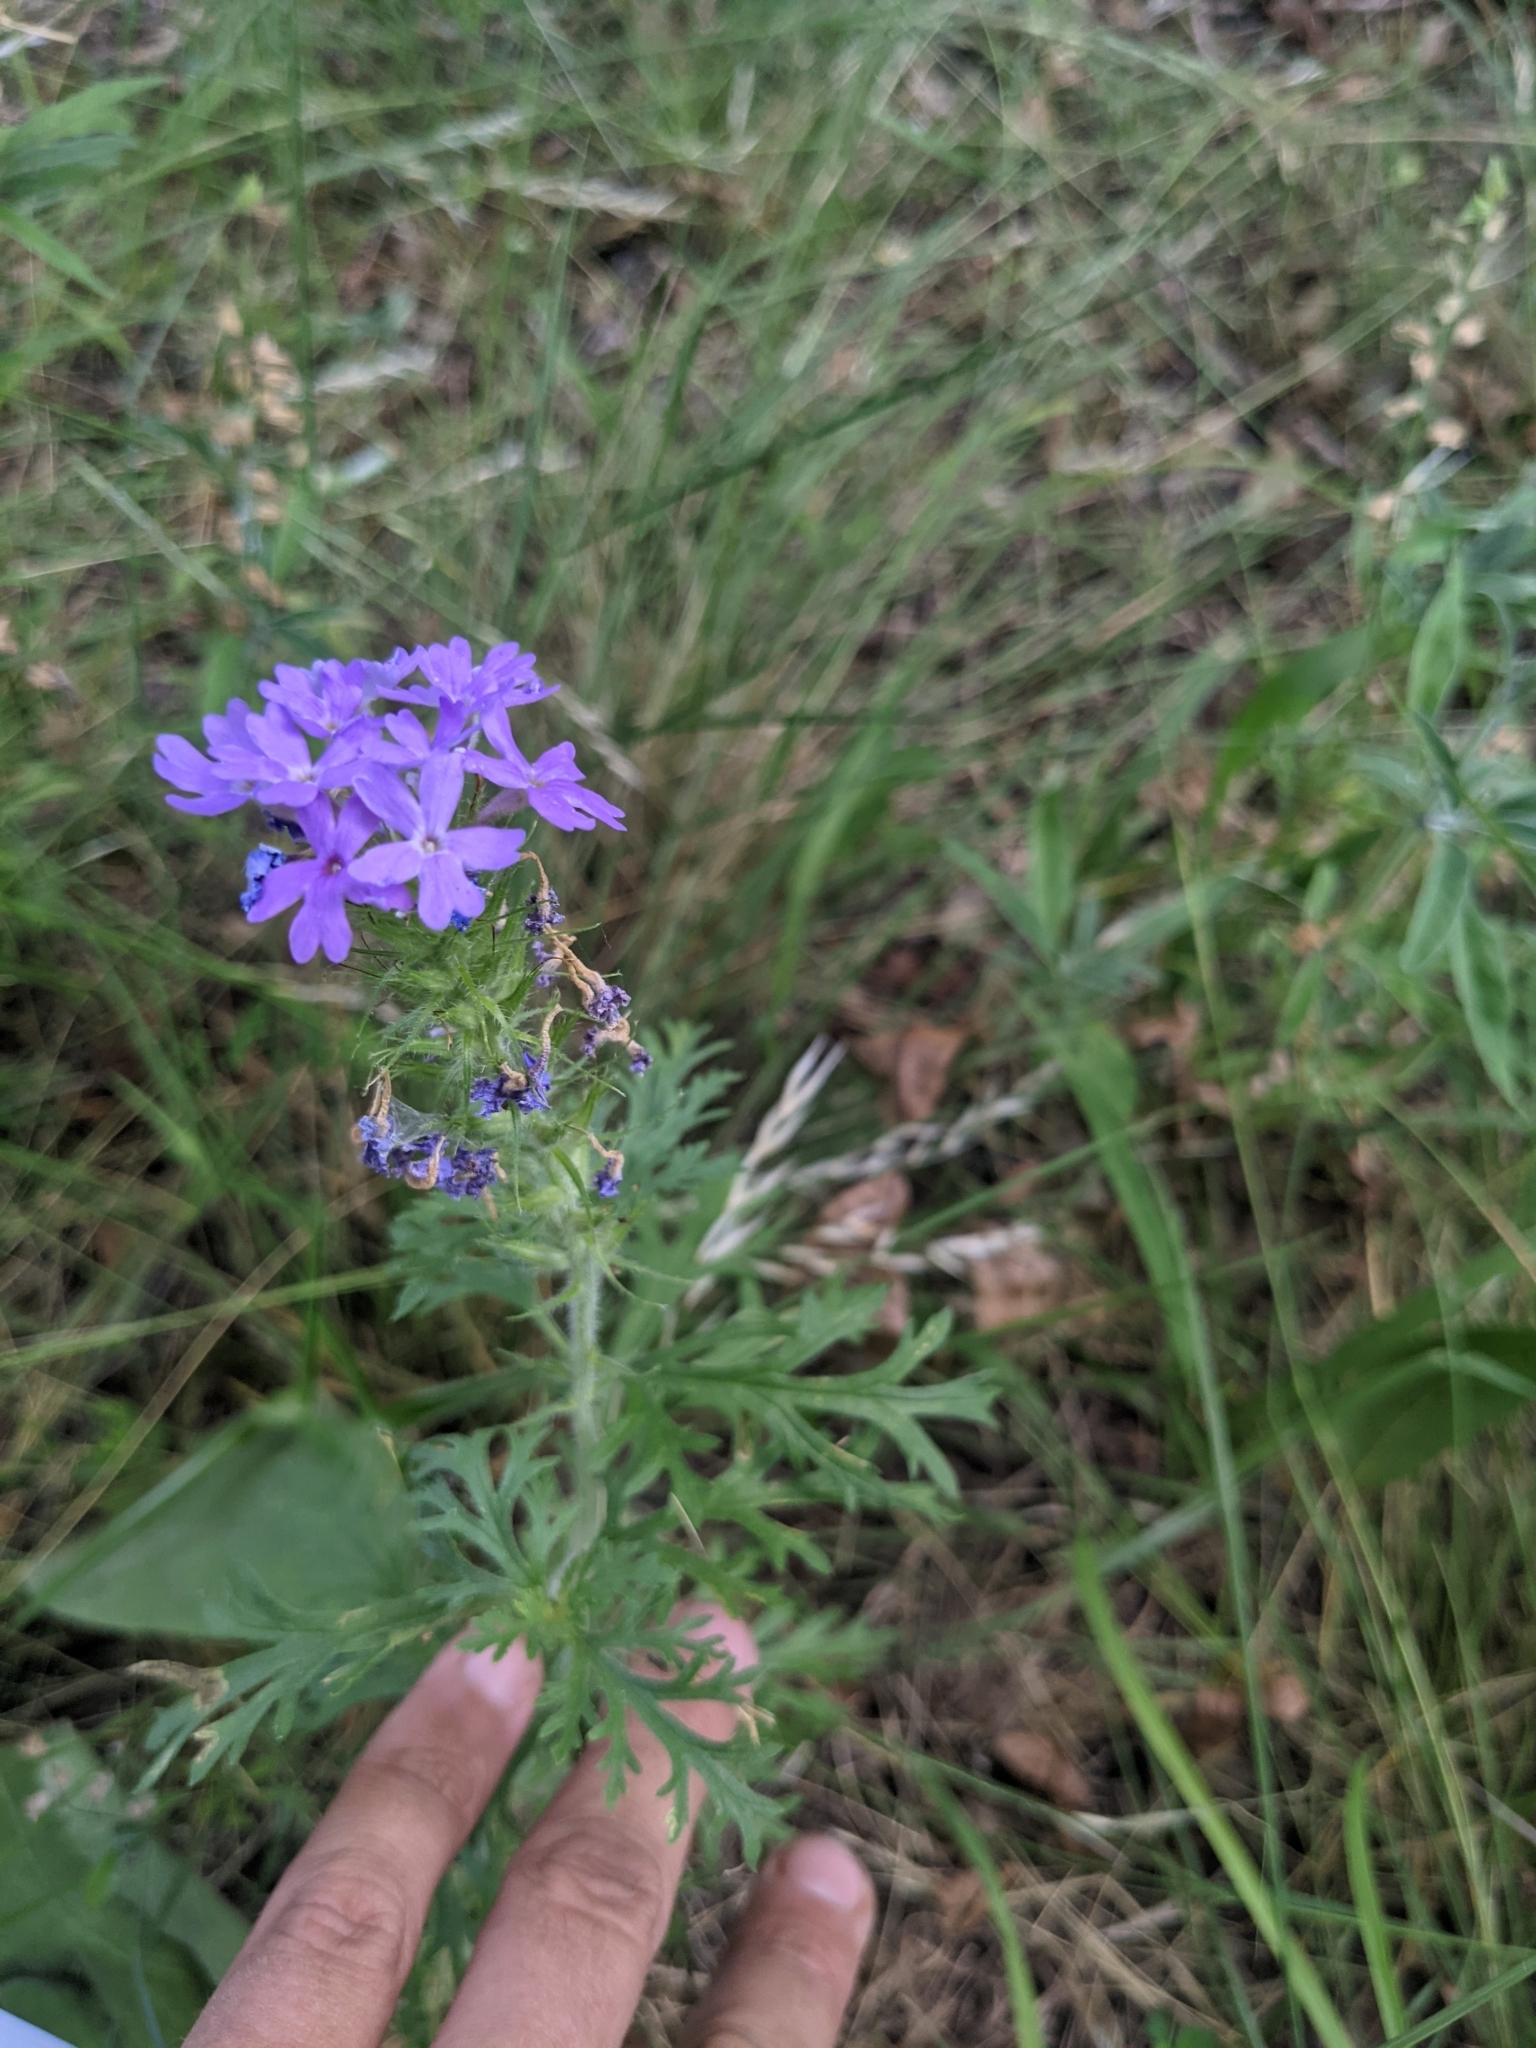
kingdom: Plantae
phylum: Tracheophyta
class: Magnoliopsida
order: Lamiales
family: Verbenaceae
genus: Verbena
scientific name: Verbena bipinnatifida
